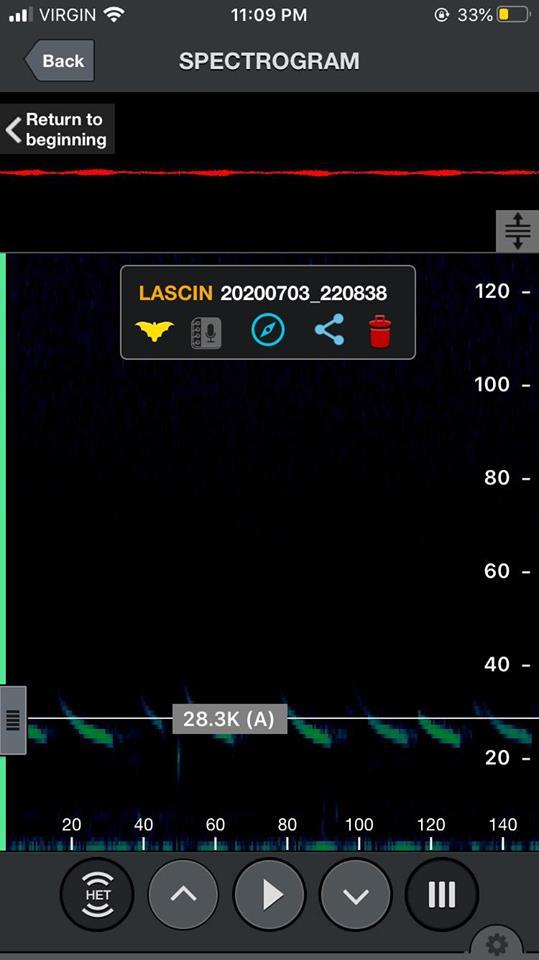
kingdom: Animalia
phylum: Chordata
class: Mammalia
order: Chiroptera
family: Vespertilionidae
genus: Aeorestes
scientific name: Aeorestes cinereus
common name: North american hoary bat
